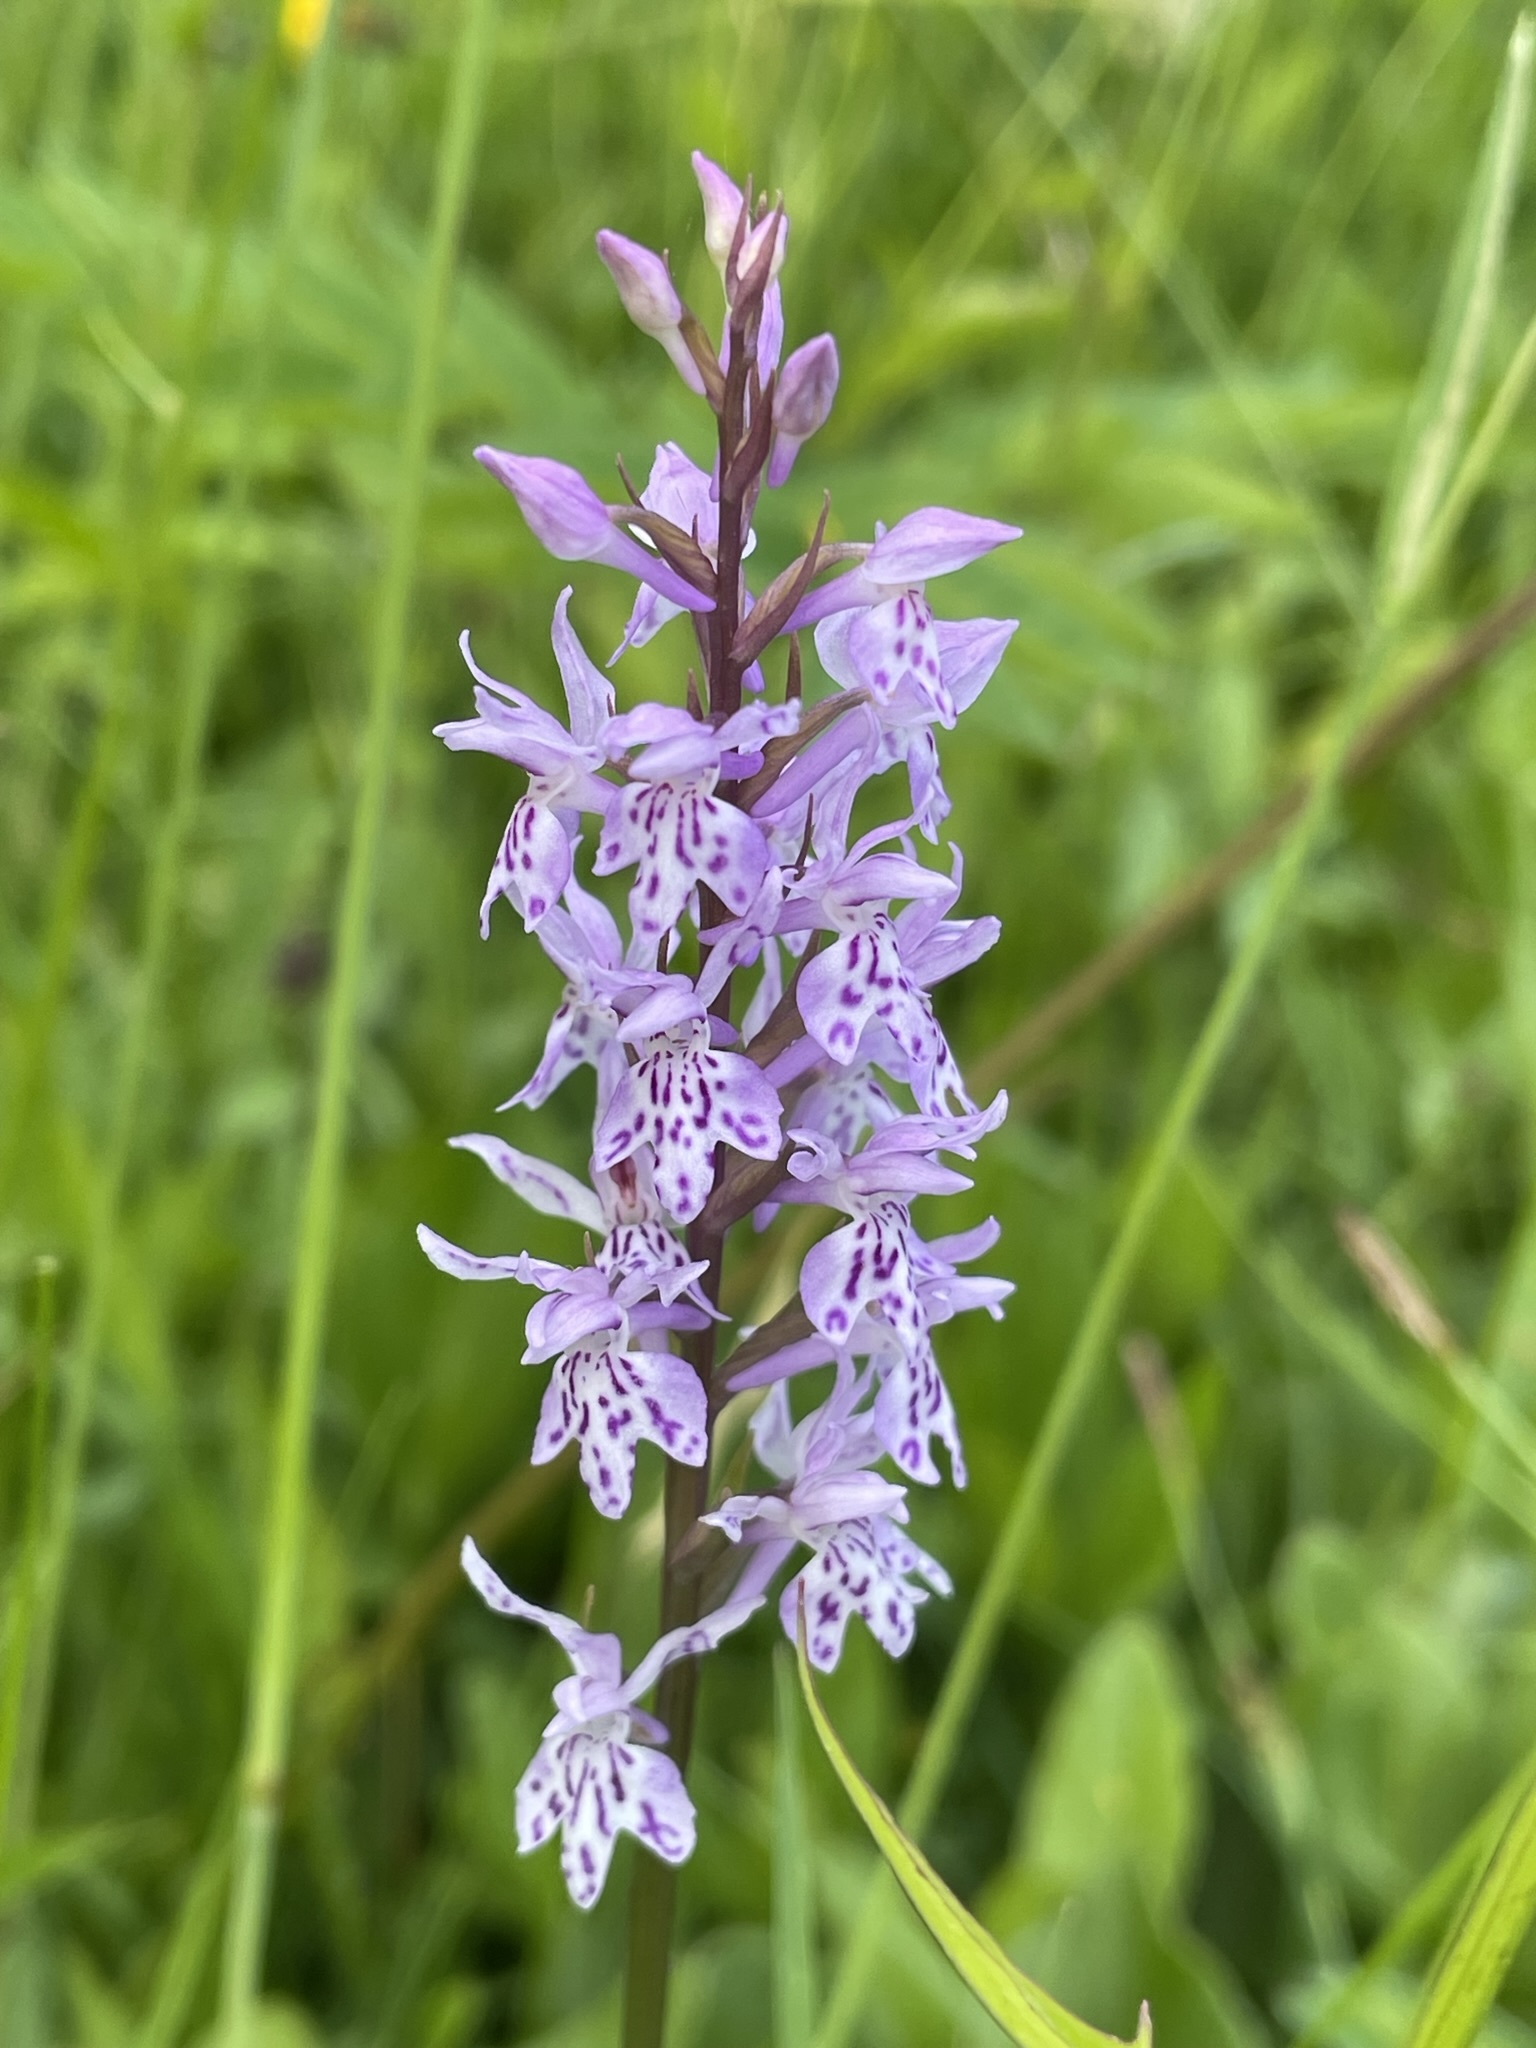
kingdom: Plantae
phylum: Tracheophyta
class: Liliopsida
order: Asparagales
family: Orchidaceae
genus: Dactylorhiza
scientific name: Dactylorhiza maculata
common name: Heath spotted-orchid
